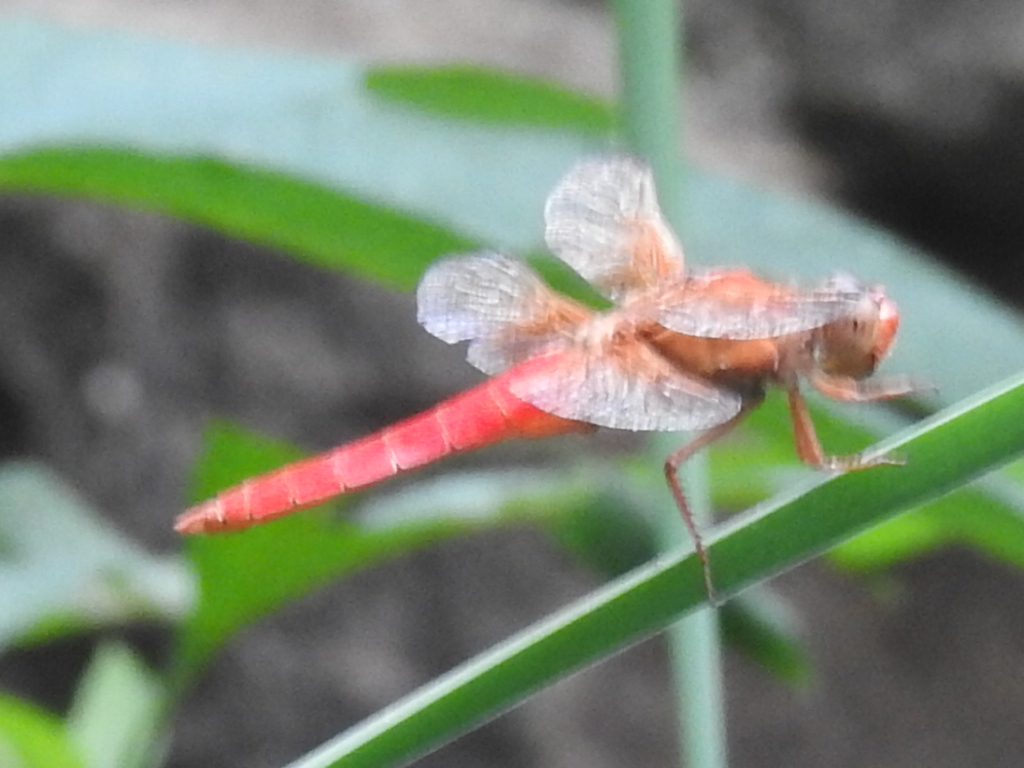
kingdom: Animalia
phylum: Arthropoda
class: Insecta
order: Odonata
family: Libellulidae
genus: Libellula
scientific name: Libellula croceipennis
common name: Neon skimmer
